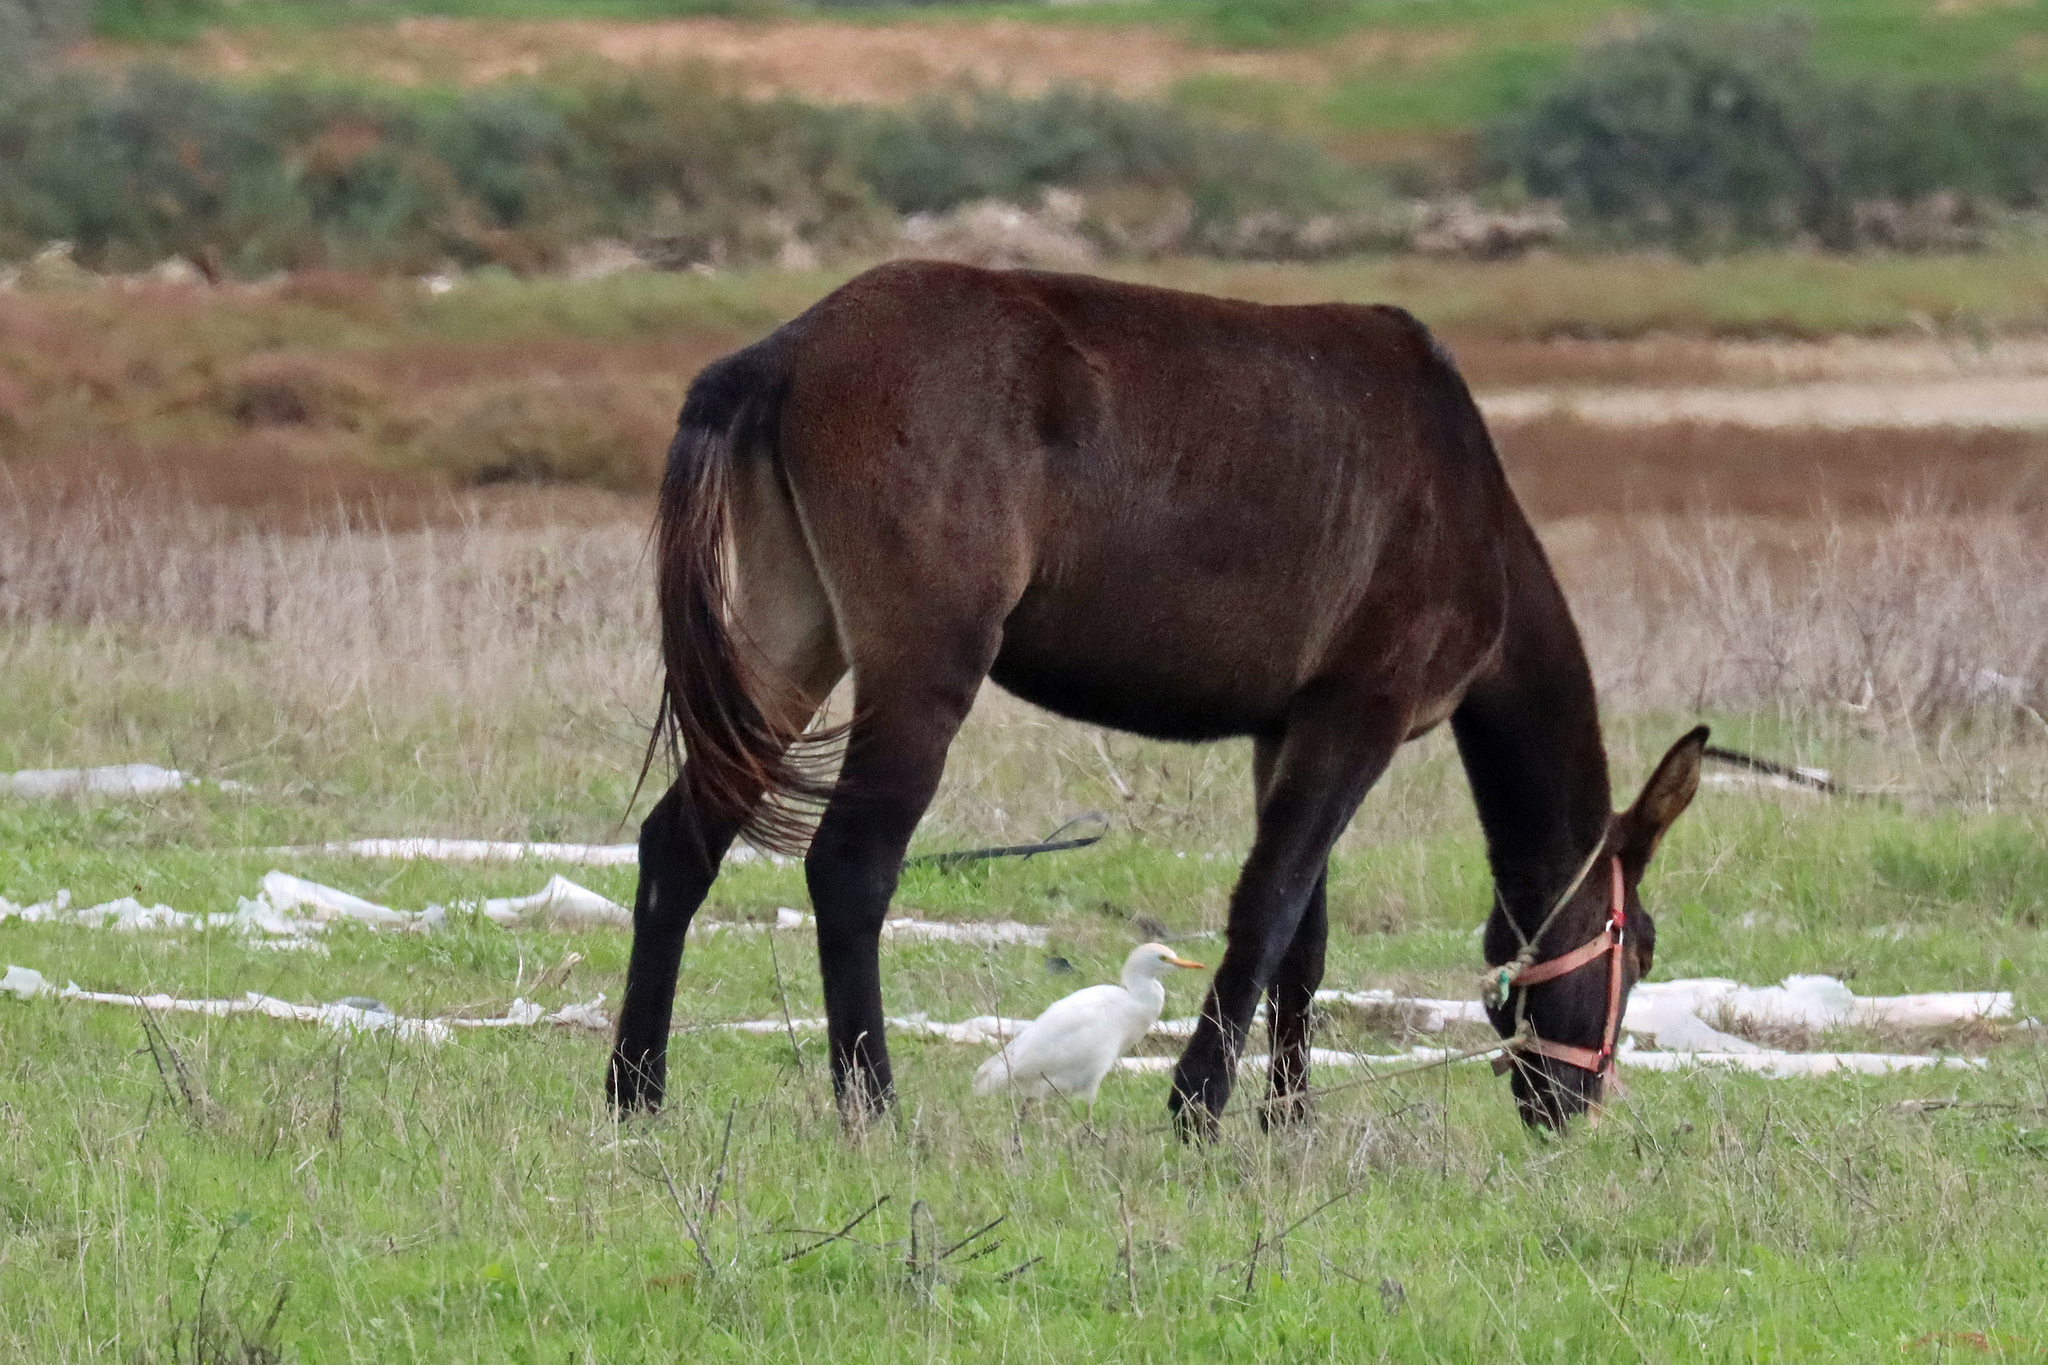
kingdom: Animalia
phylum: Chordata
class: Aves
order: Pelecaniformes
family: Ardeidae
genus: Bubulcus
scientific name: Bubulcus ibis
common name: Cattle egret
